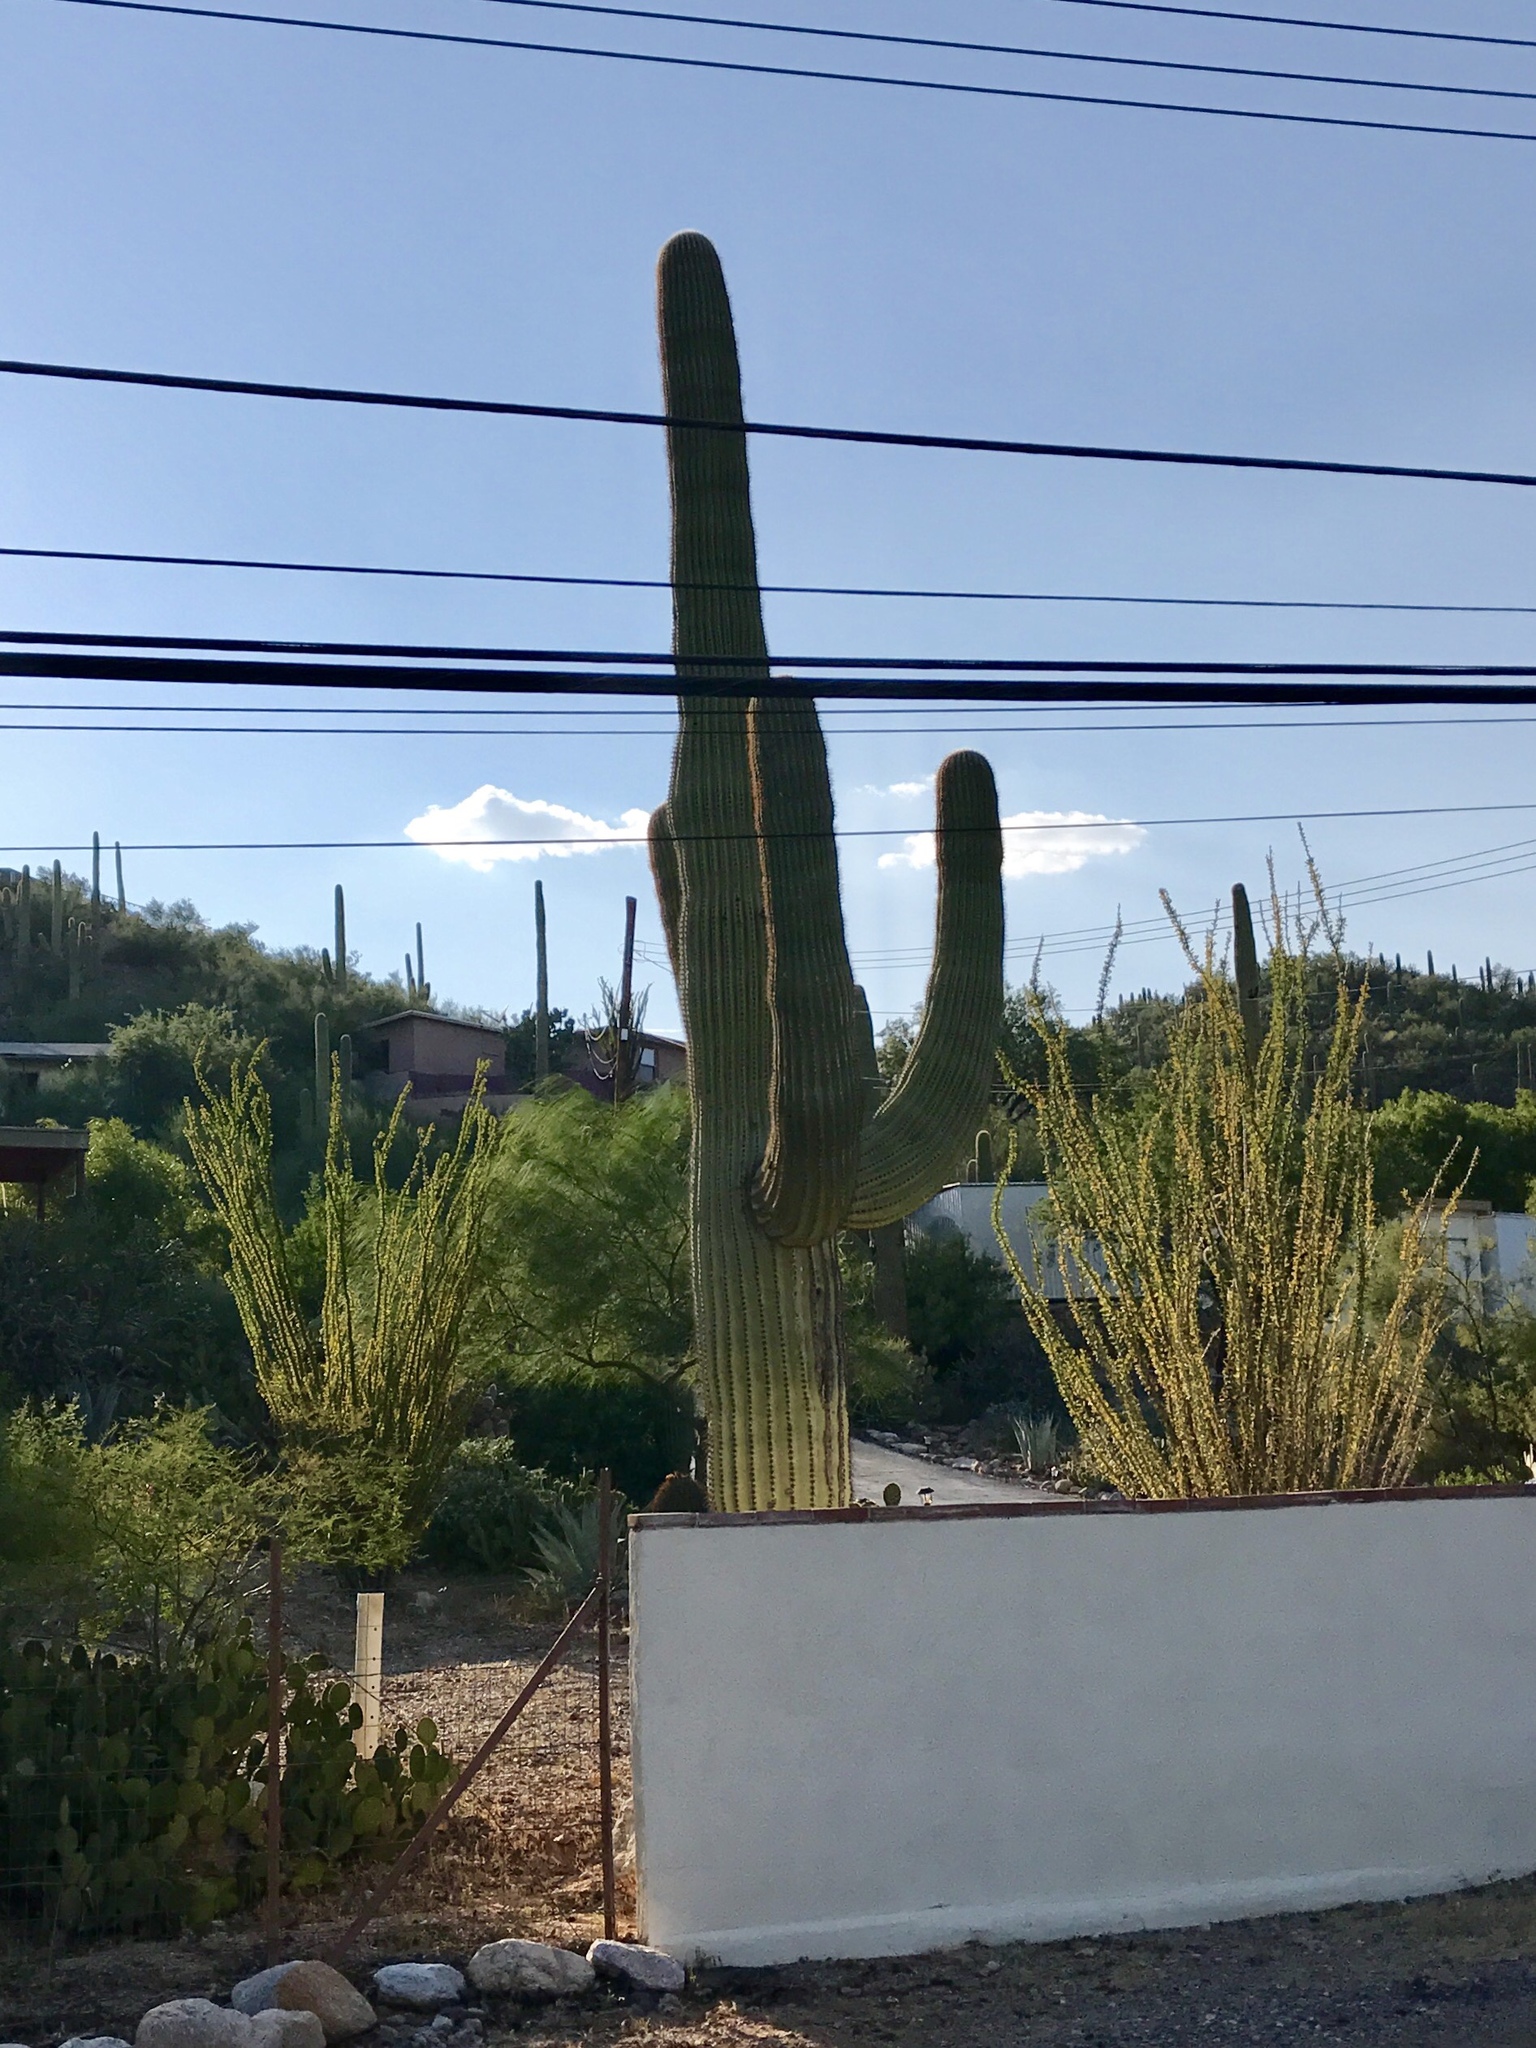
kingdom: Plantae
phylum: Tracheophyta
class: Magnoliopsida
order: Caryophyllales
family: Cactaceae
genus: Carnegiea
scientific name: Carnegiea gigantea
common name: Saguaro
